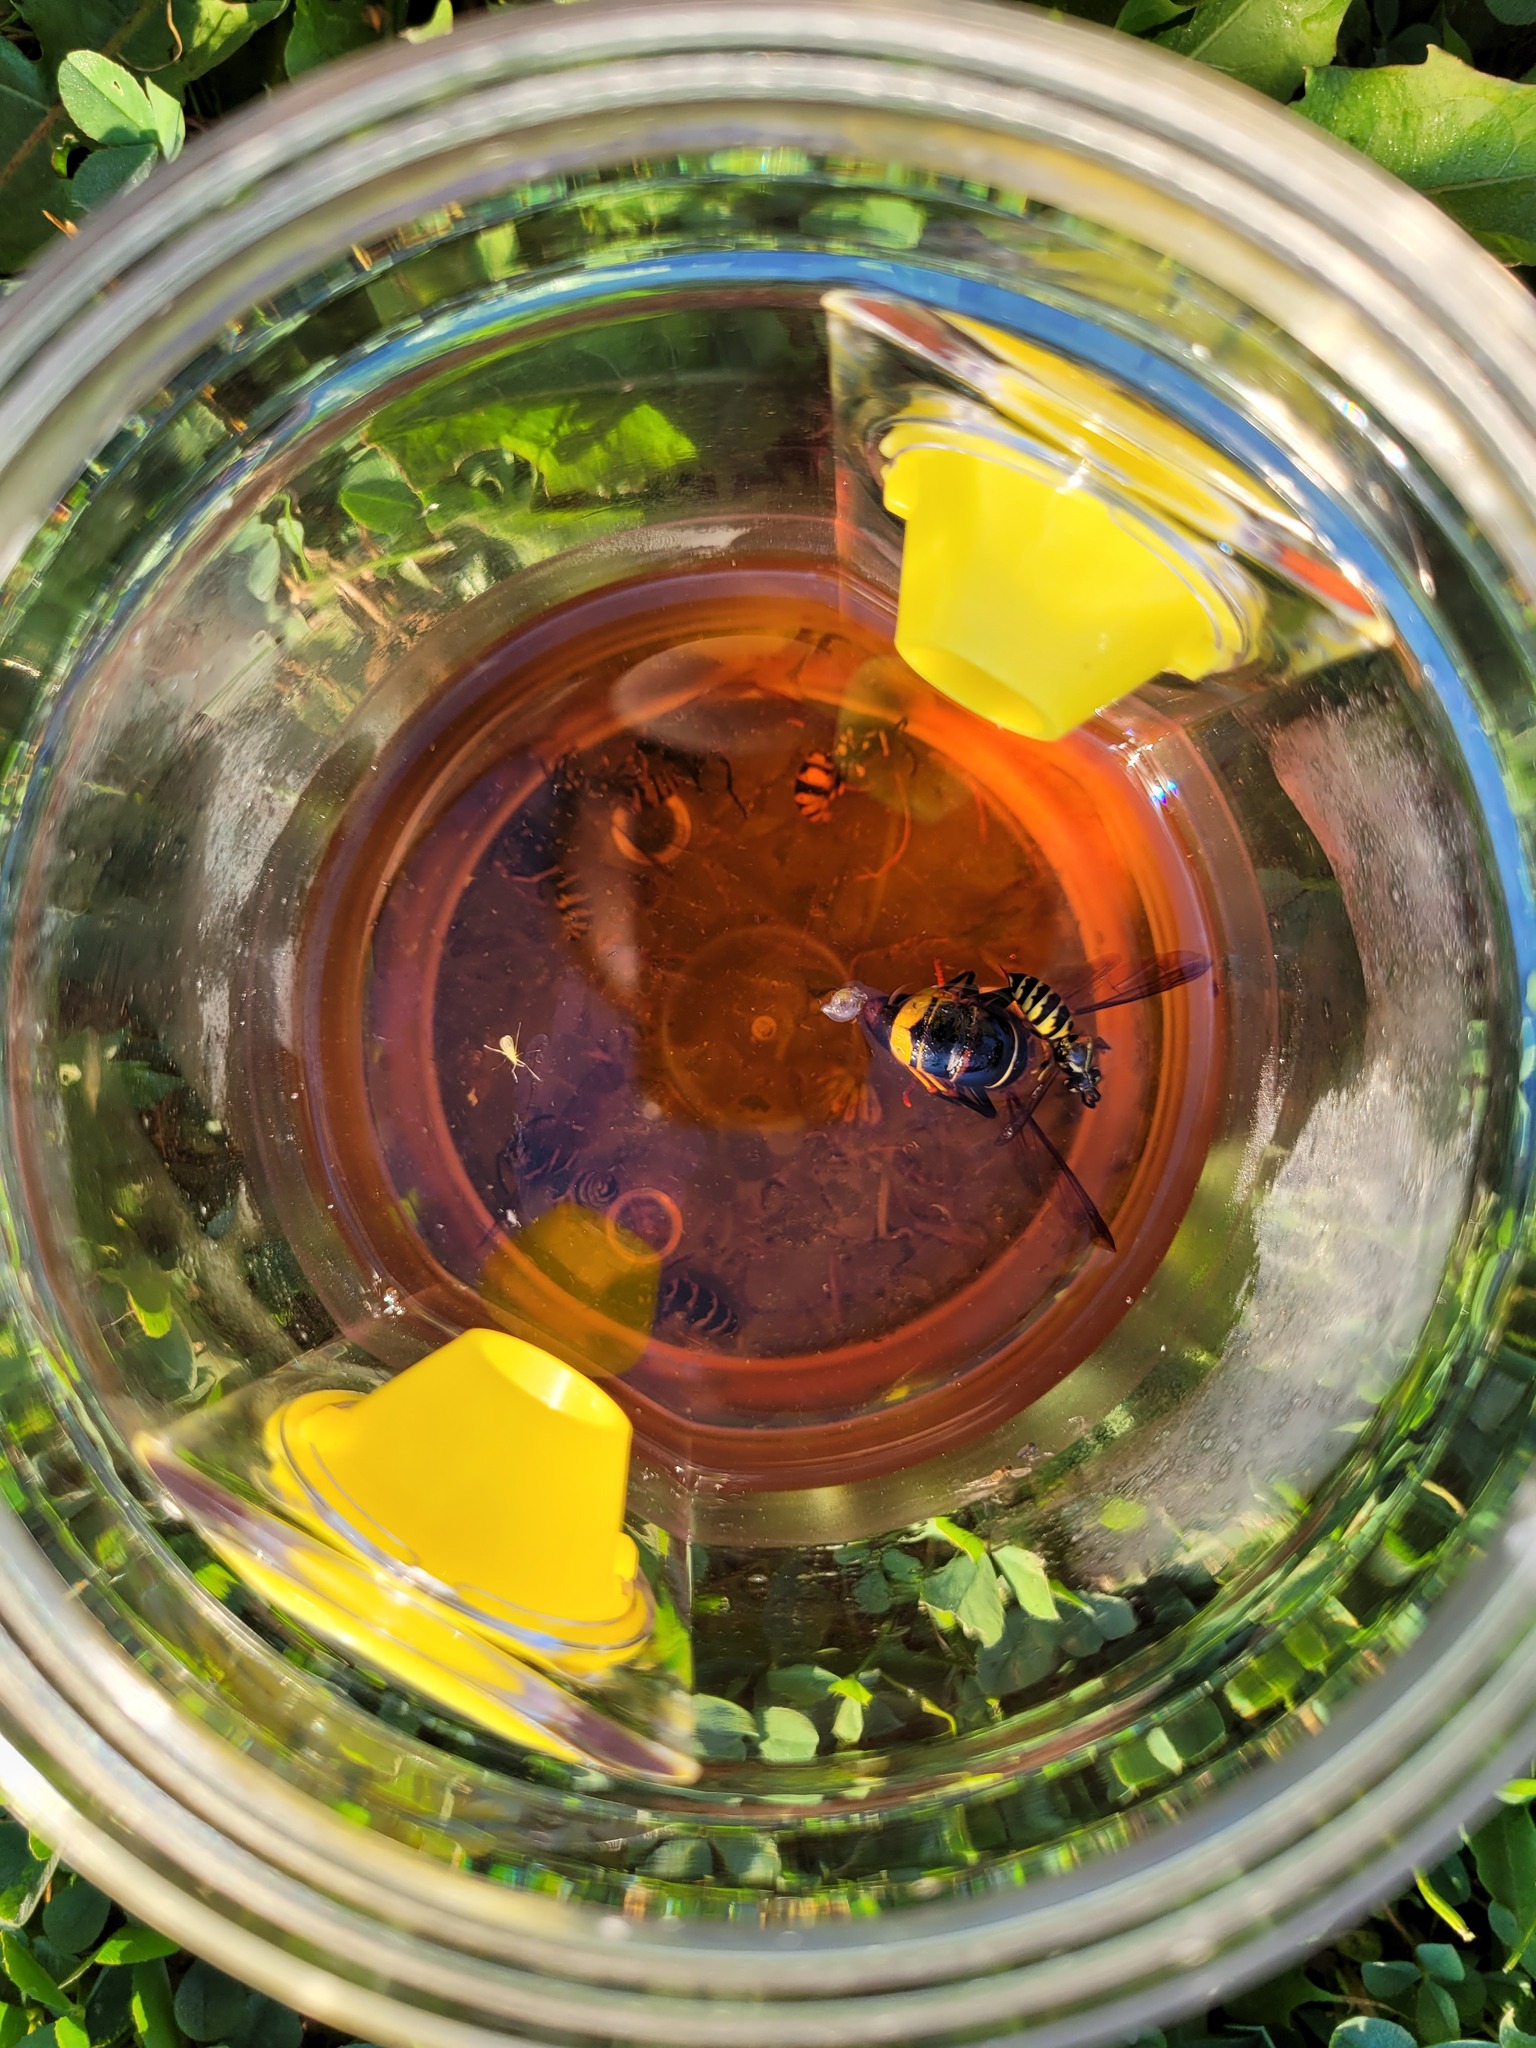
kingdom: Animalia
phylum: Arthropoda
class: Insecta
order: Hymenoptera
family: Vespidae
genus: Vespa
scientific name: Vespa velutina
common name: Asian hornet
